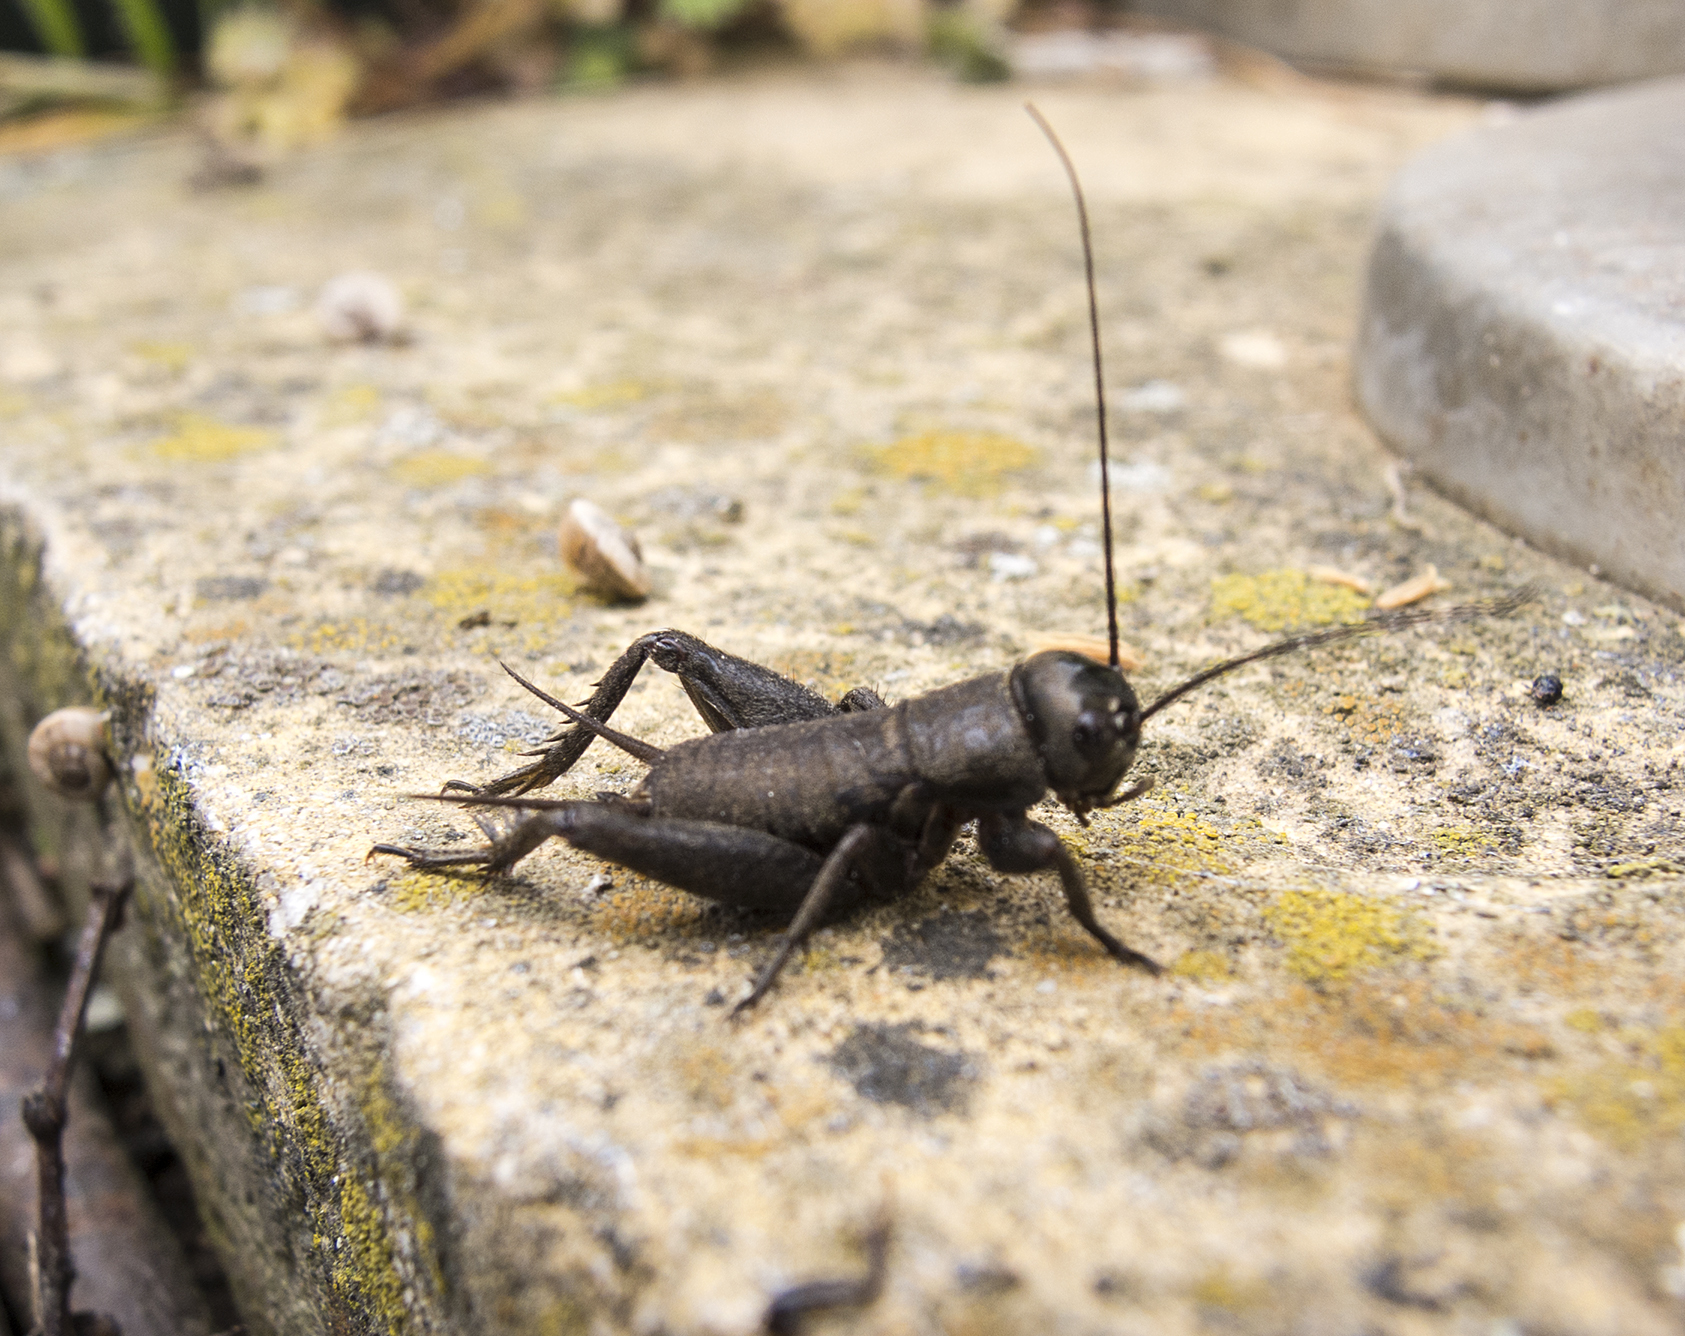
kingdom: Animalia
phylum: Arthropoda
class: Insecta
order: Orthoptera
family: Gryllidae
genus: Gryllus
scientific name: Gryllus campestris
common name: Field cricket
